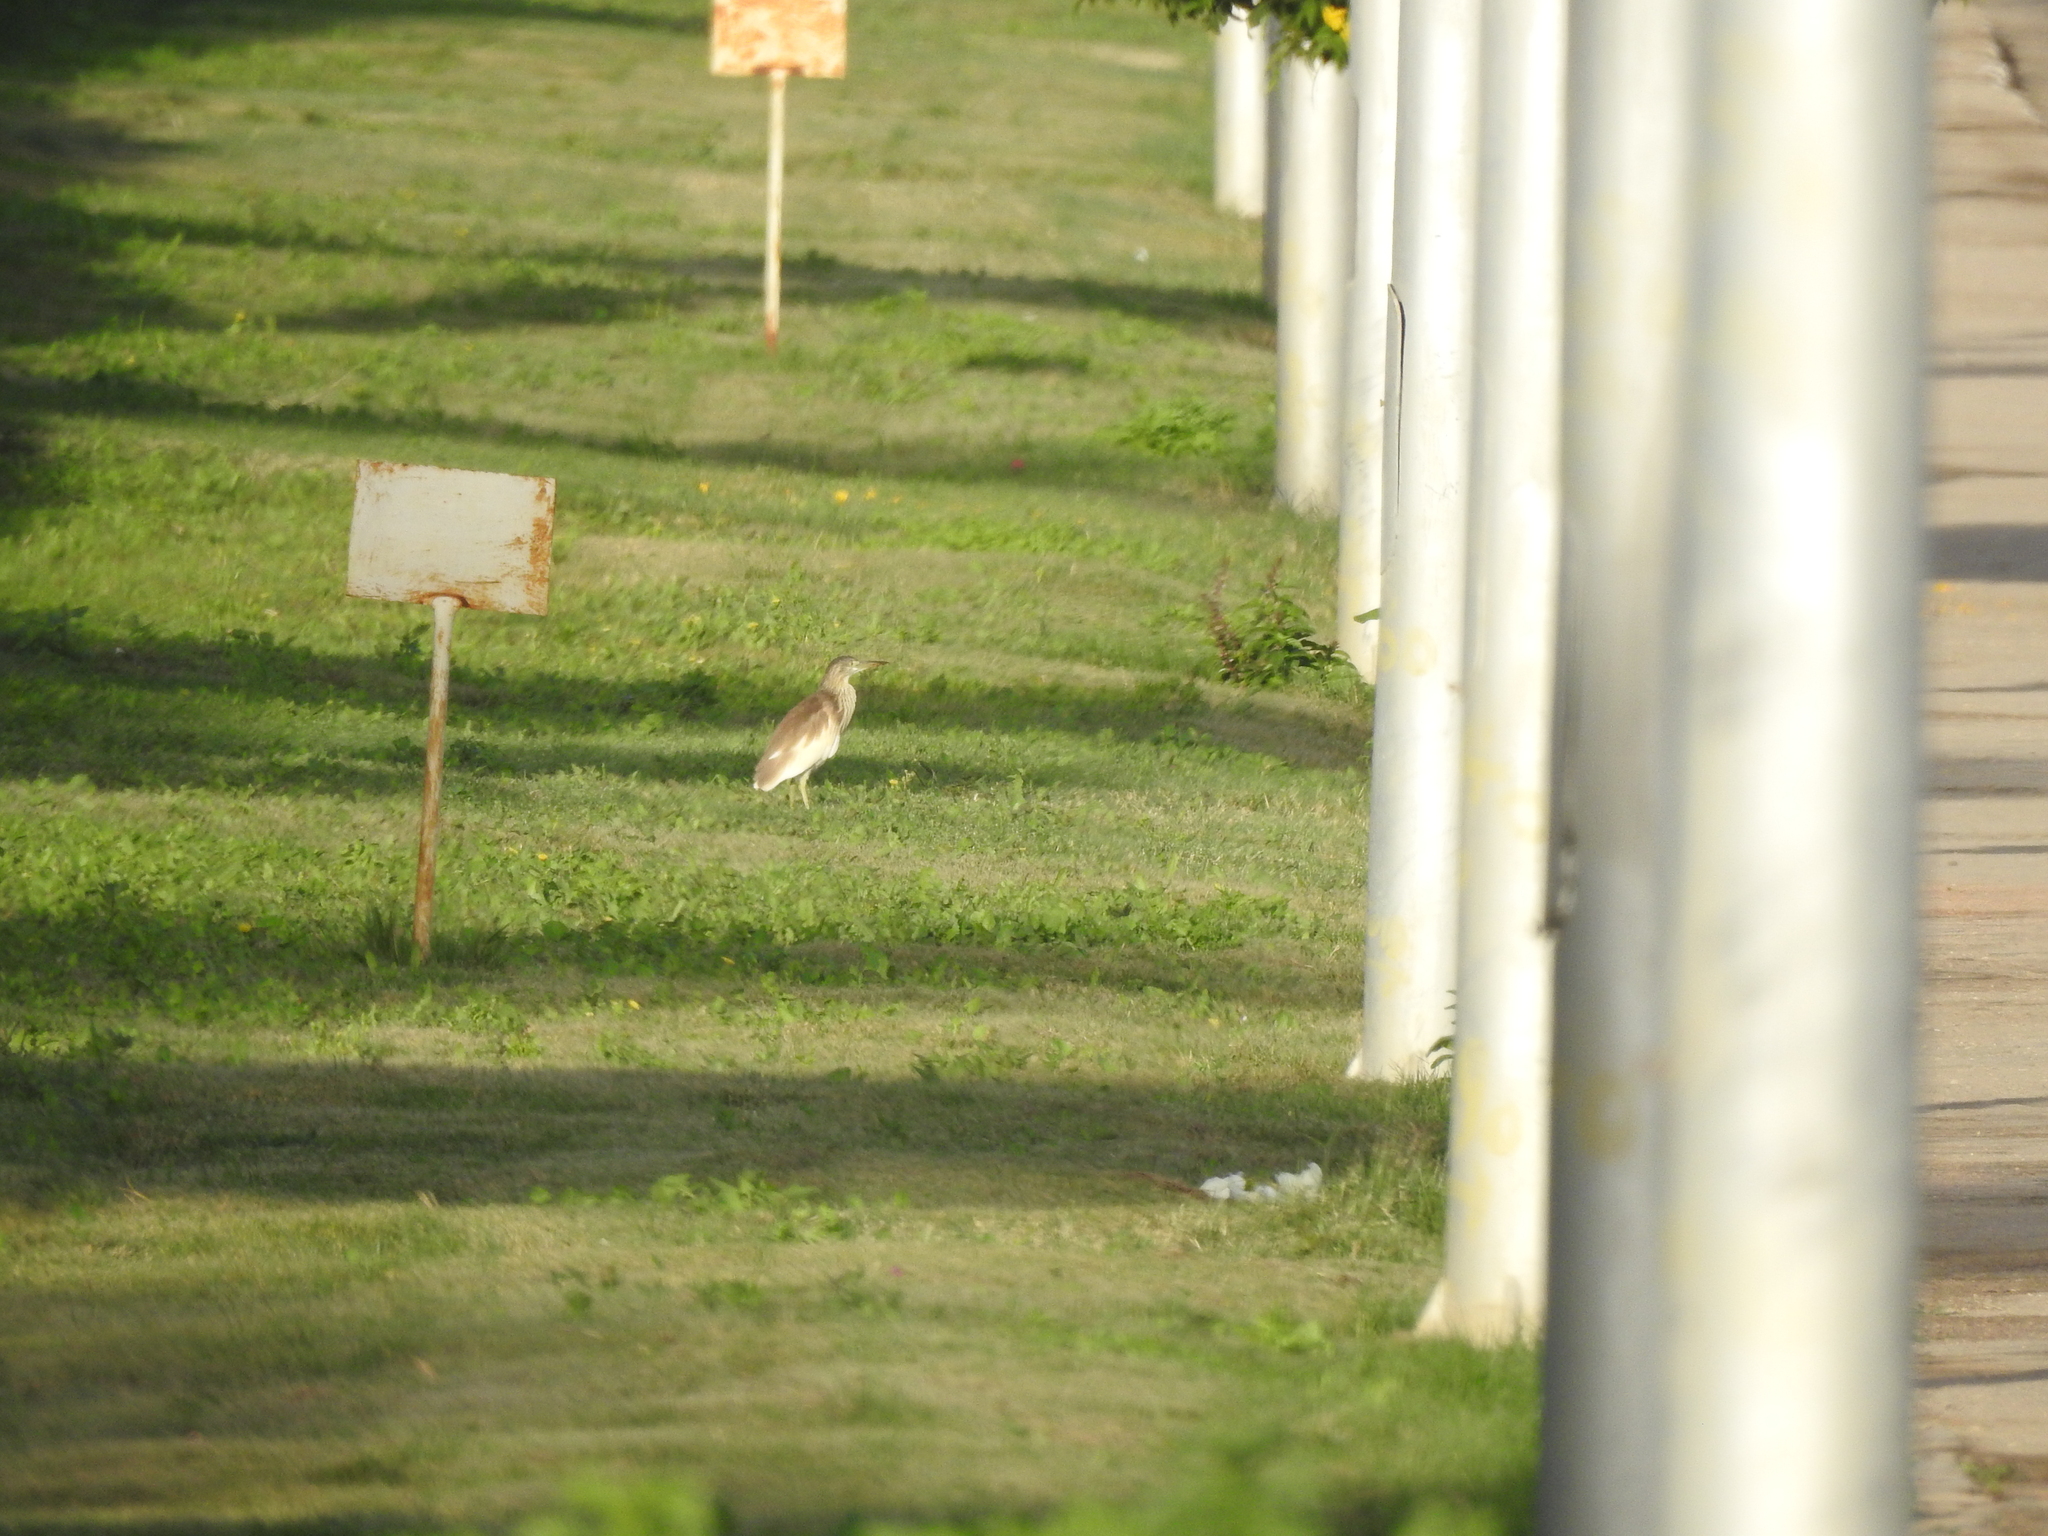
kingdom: Animalia
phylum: Chordata
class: Aves
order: Pelecaniformes
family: Ardeidae
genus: Ardeola
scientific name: Ardeola ralloides
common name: Squacco heron
